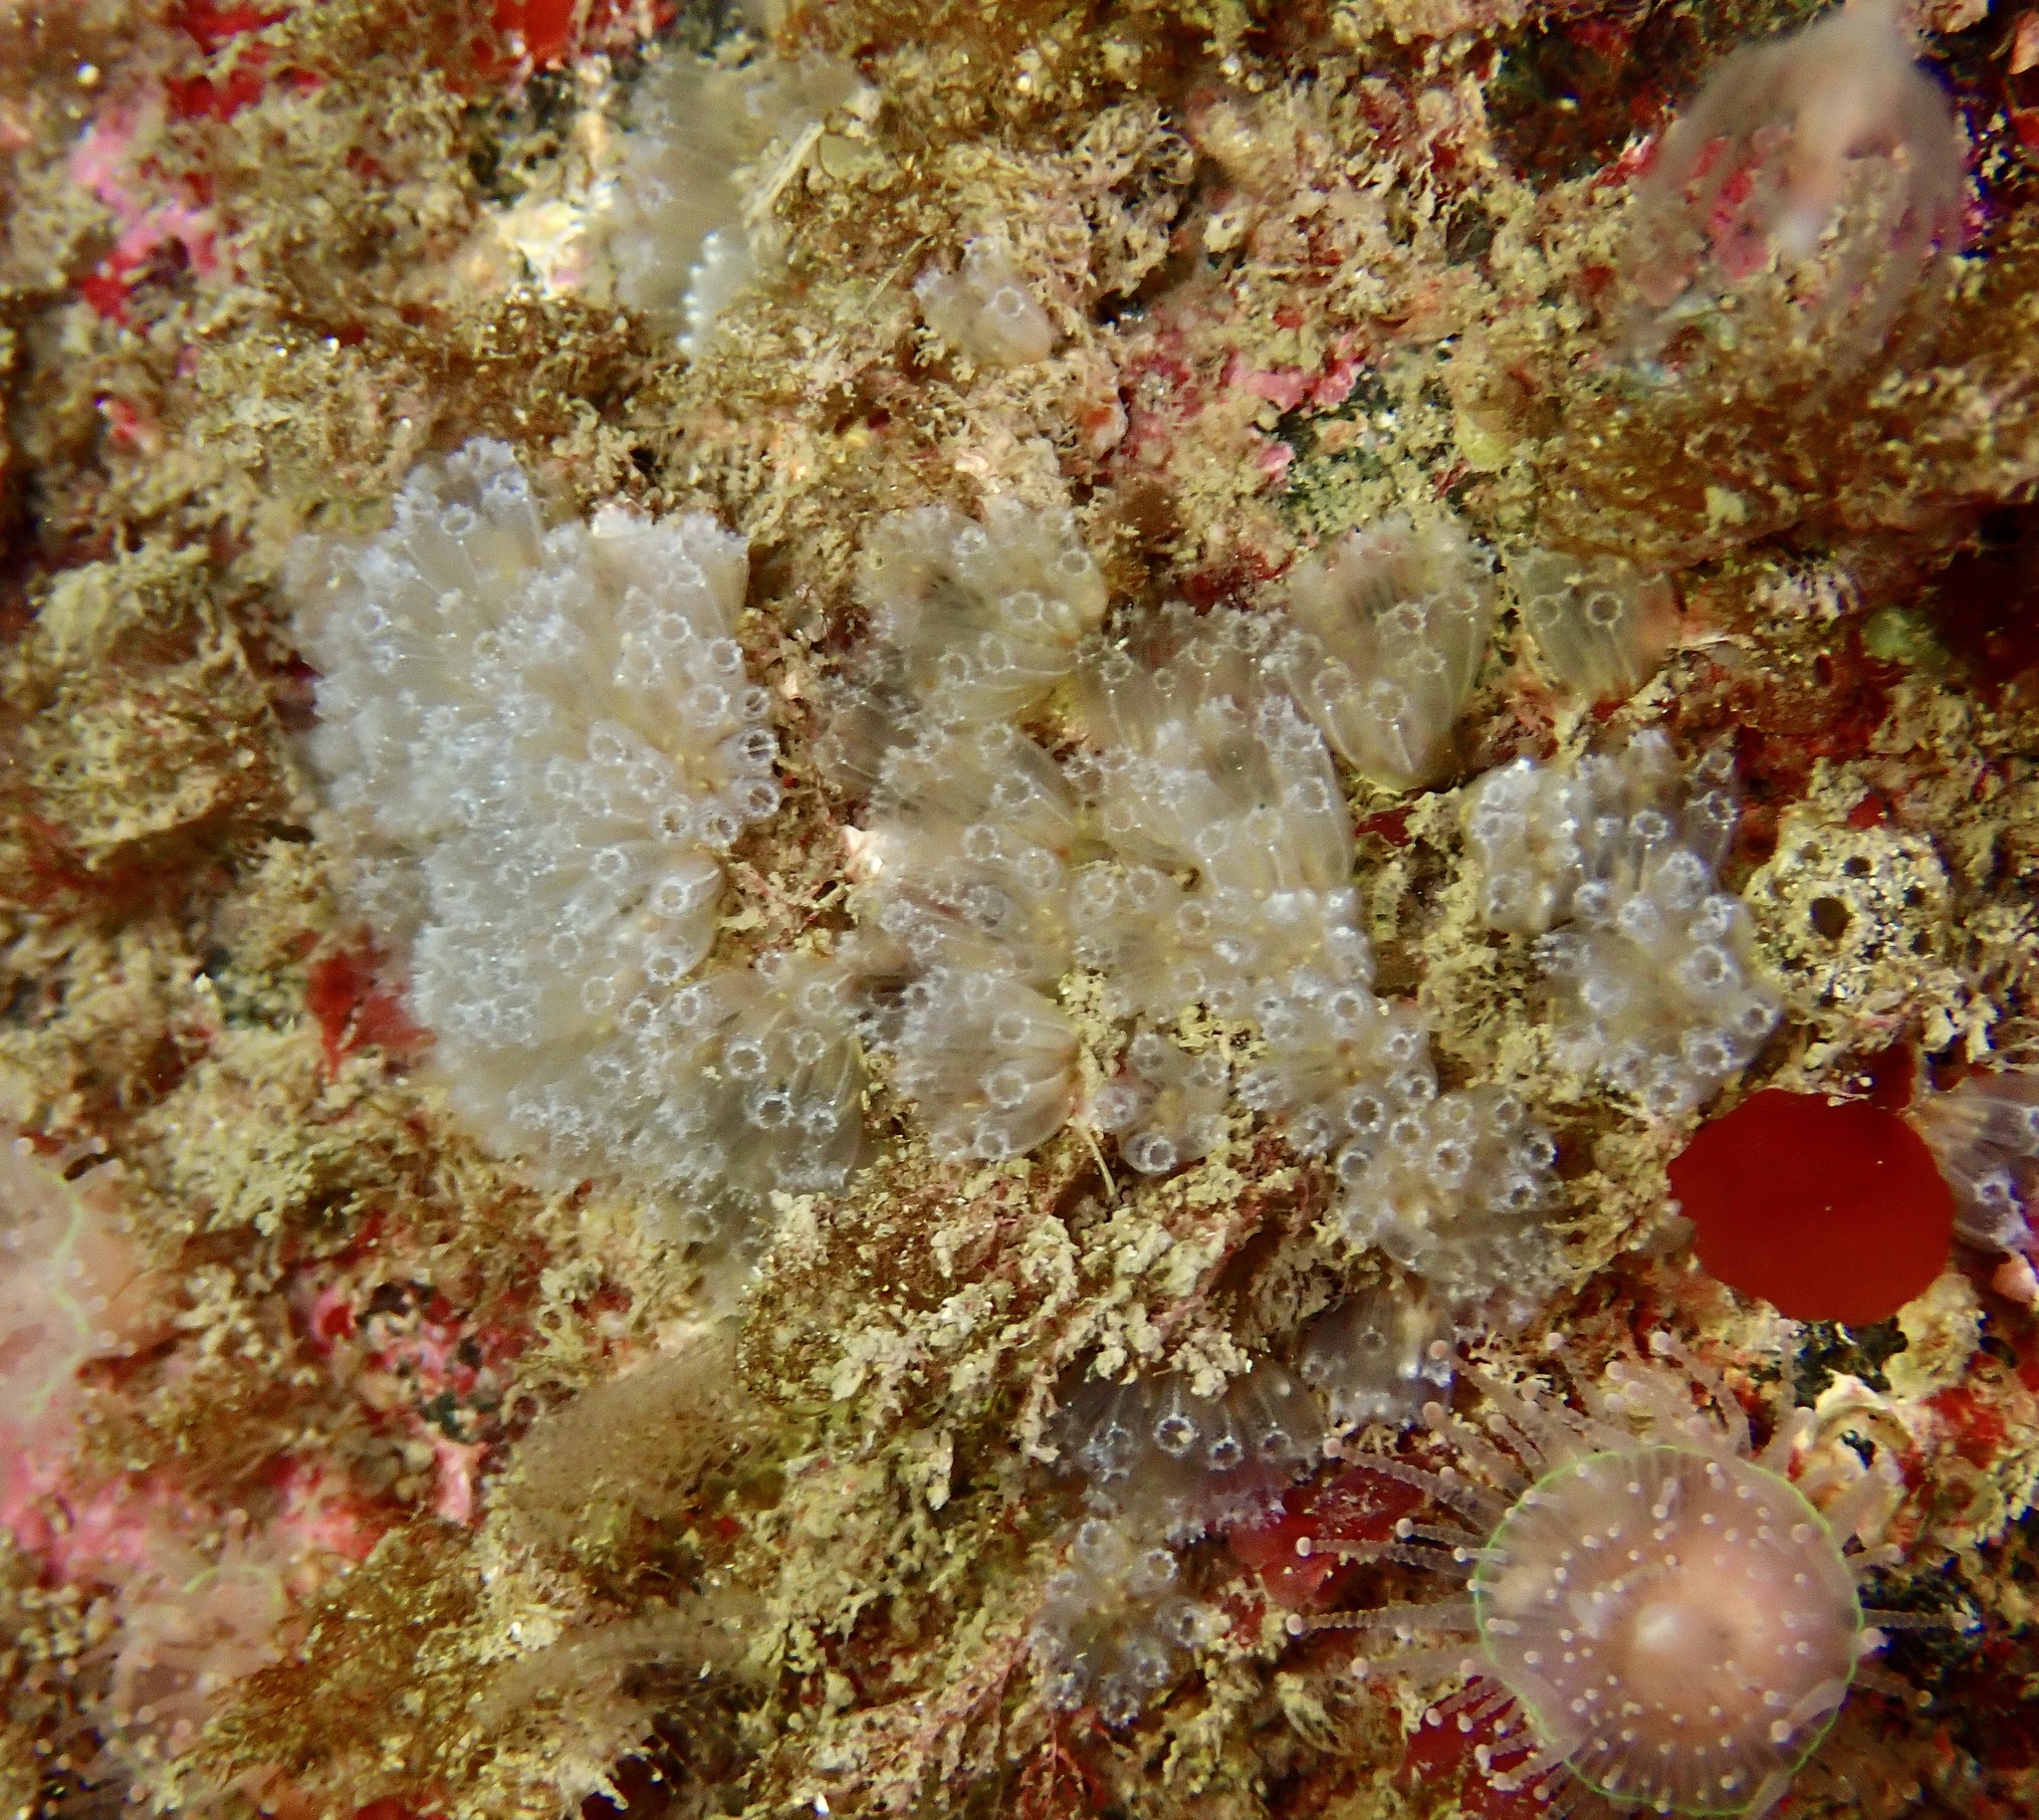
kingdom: Animalia
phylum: Chordata
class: Ascidiacea
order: Aplousobranchia
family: Polyclinidae
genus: Aplidium
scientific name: Aplidium turbinatum
